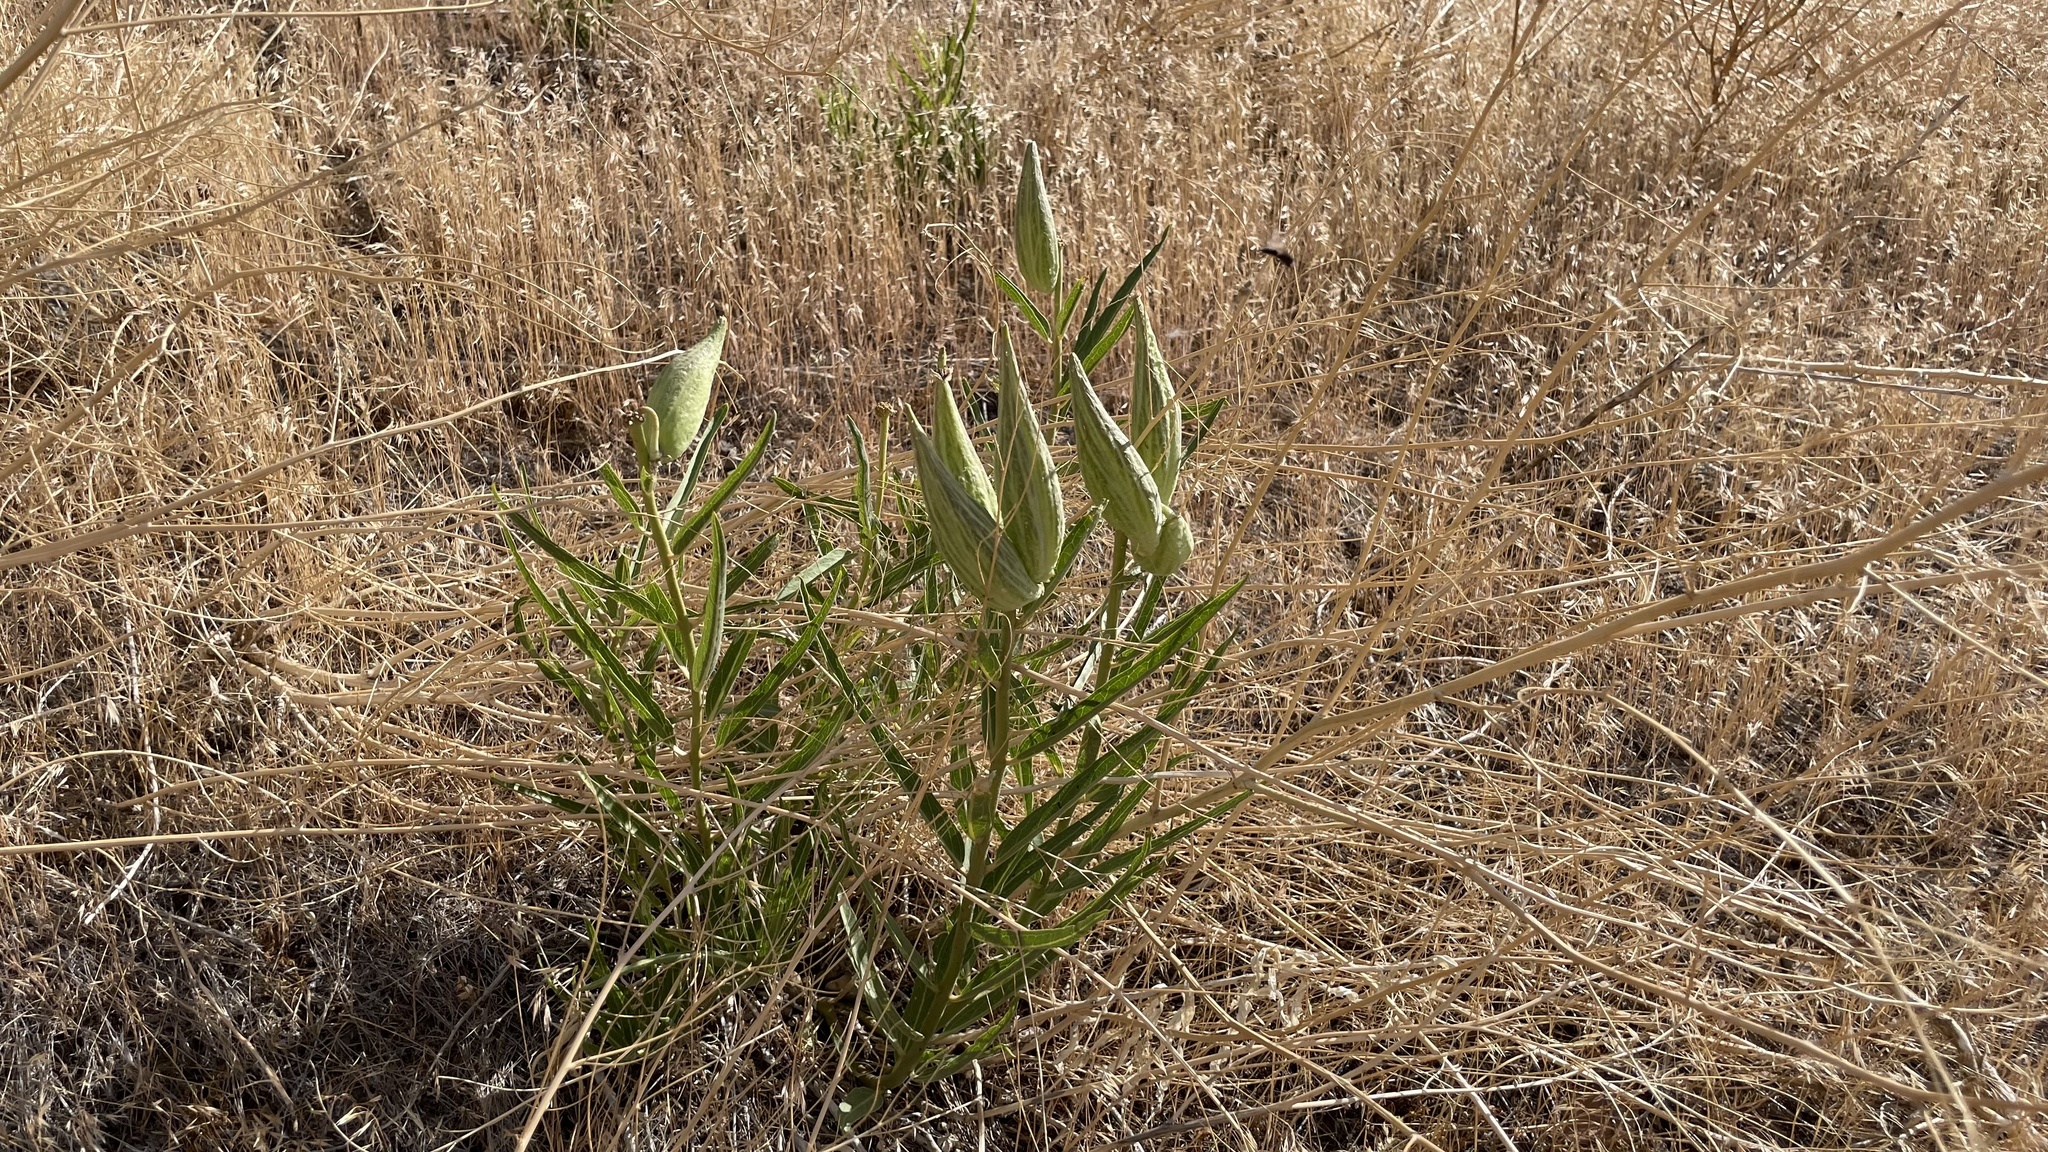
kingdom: Plantae
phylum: Tracheophyta
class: Magnoliopsida
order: Gentianales
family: Apocynaceae
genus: Asclepias
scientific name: Asclepias asperula
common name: Antelope horns
